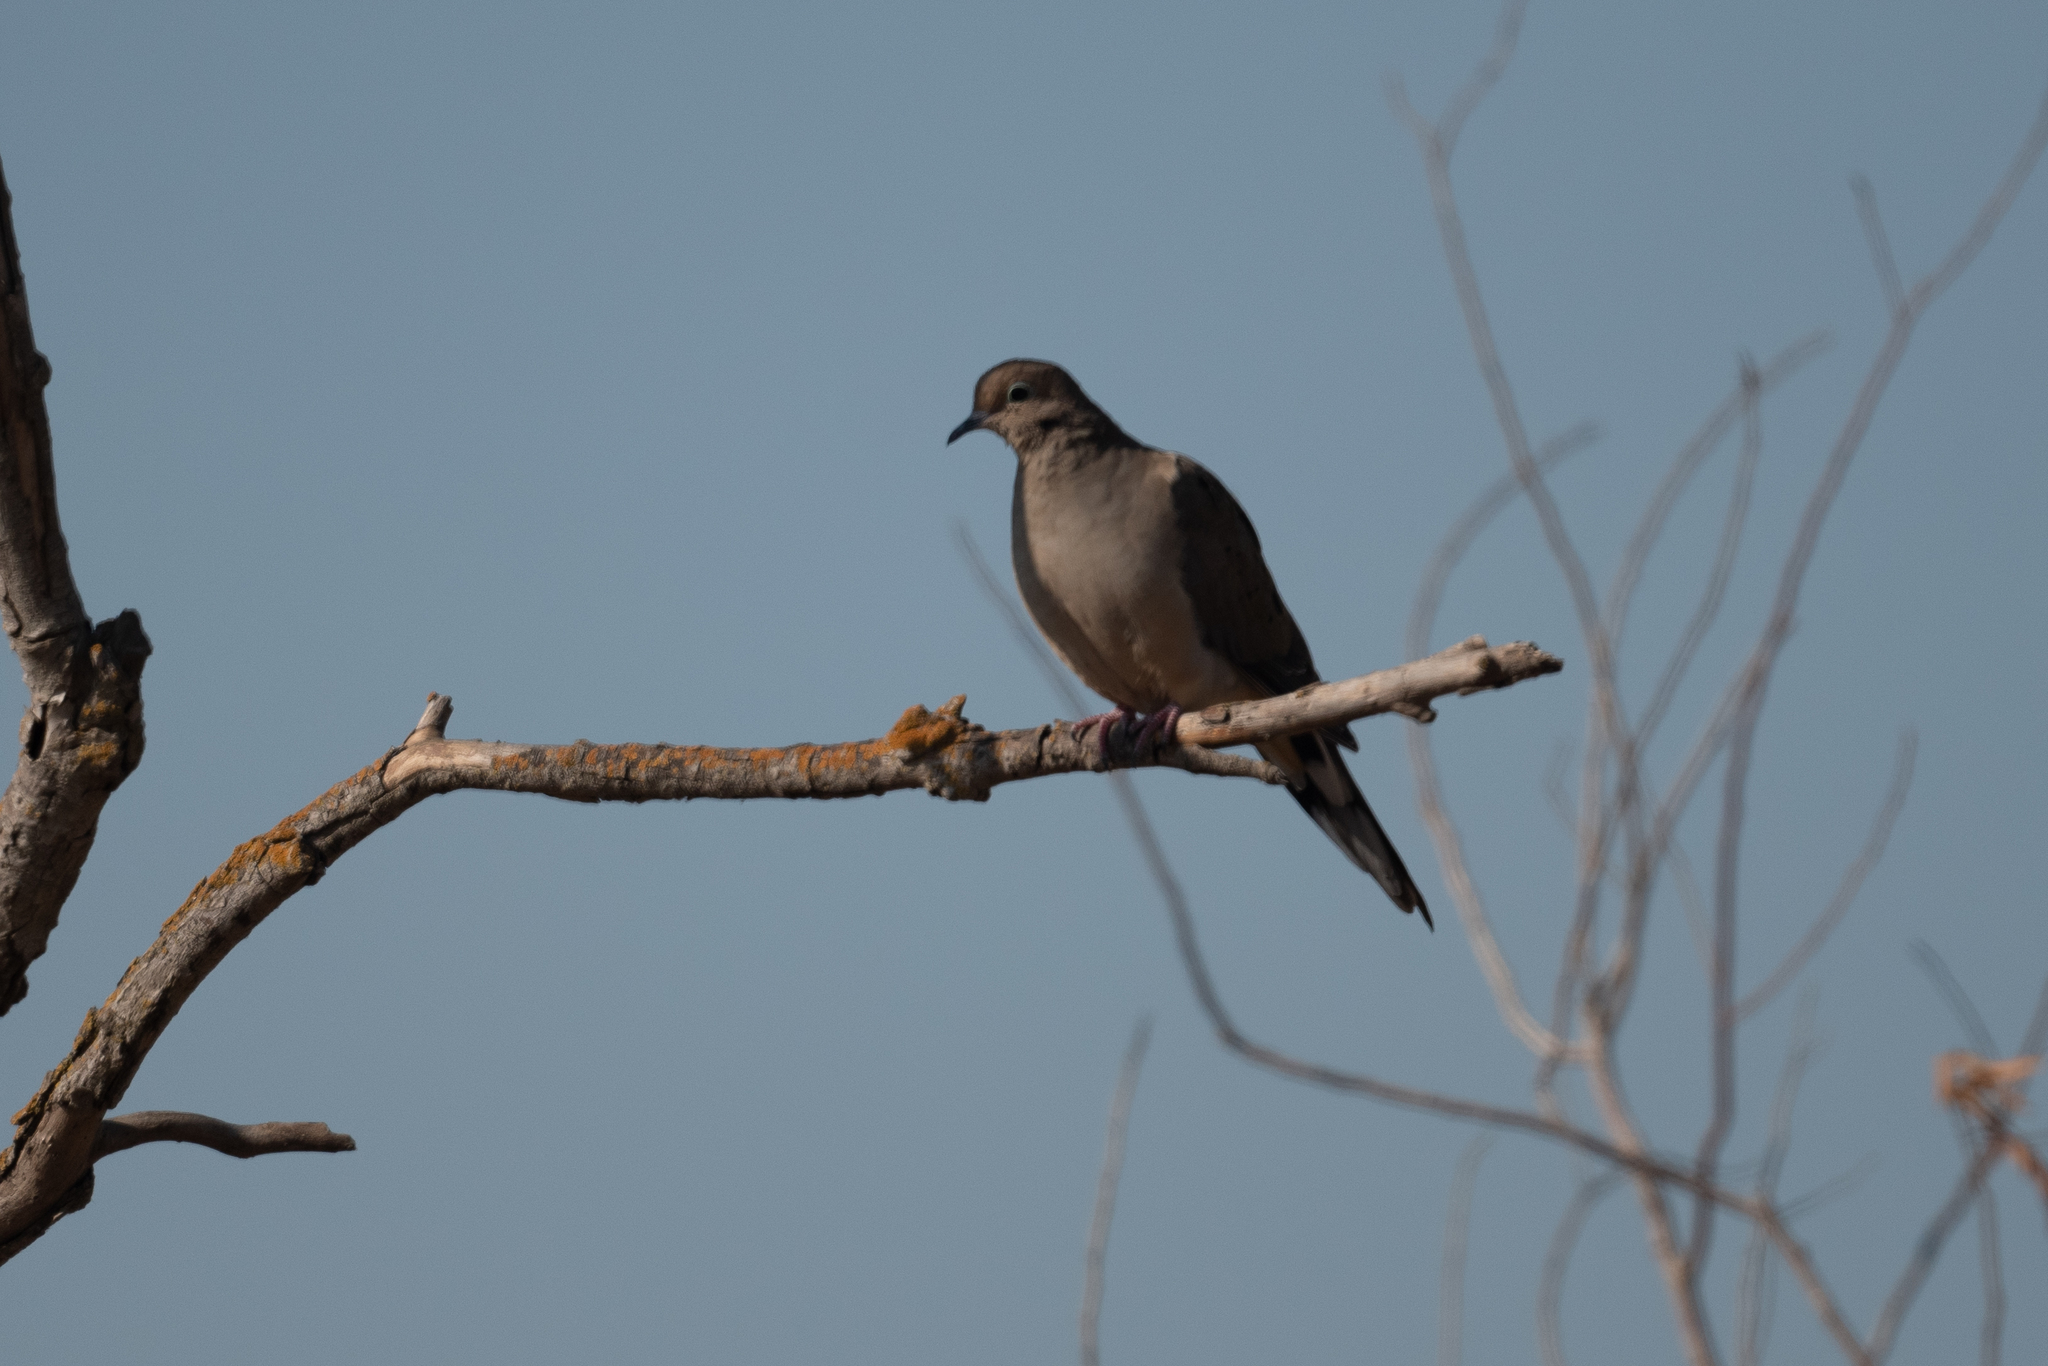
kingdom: Animalia
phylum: Chordata
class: Aves
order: Columbiformes
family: Columbidae
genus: Zenaida
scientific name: Zenaida macroura
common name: Mourning dove
